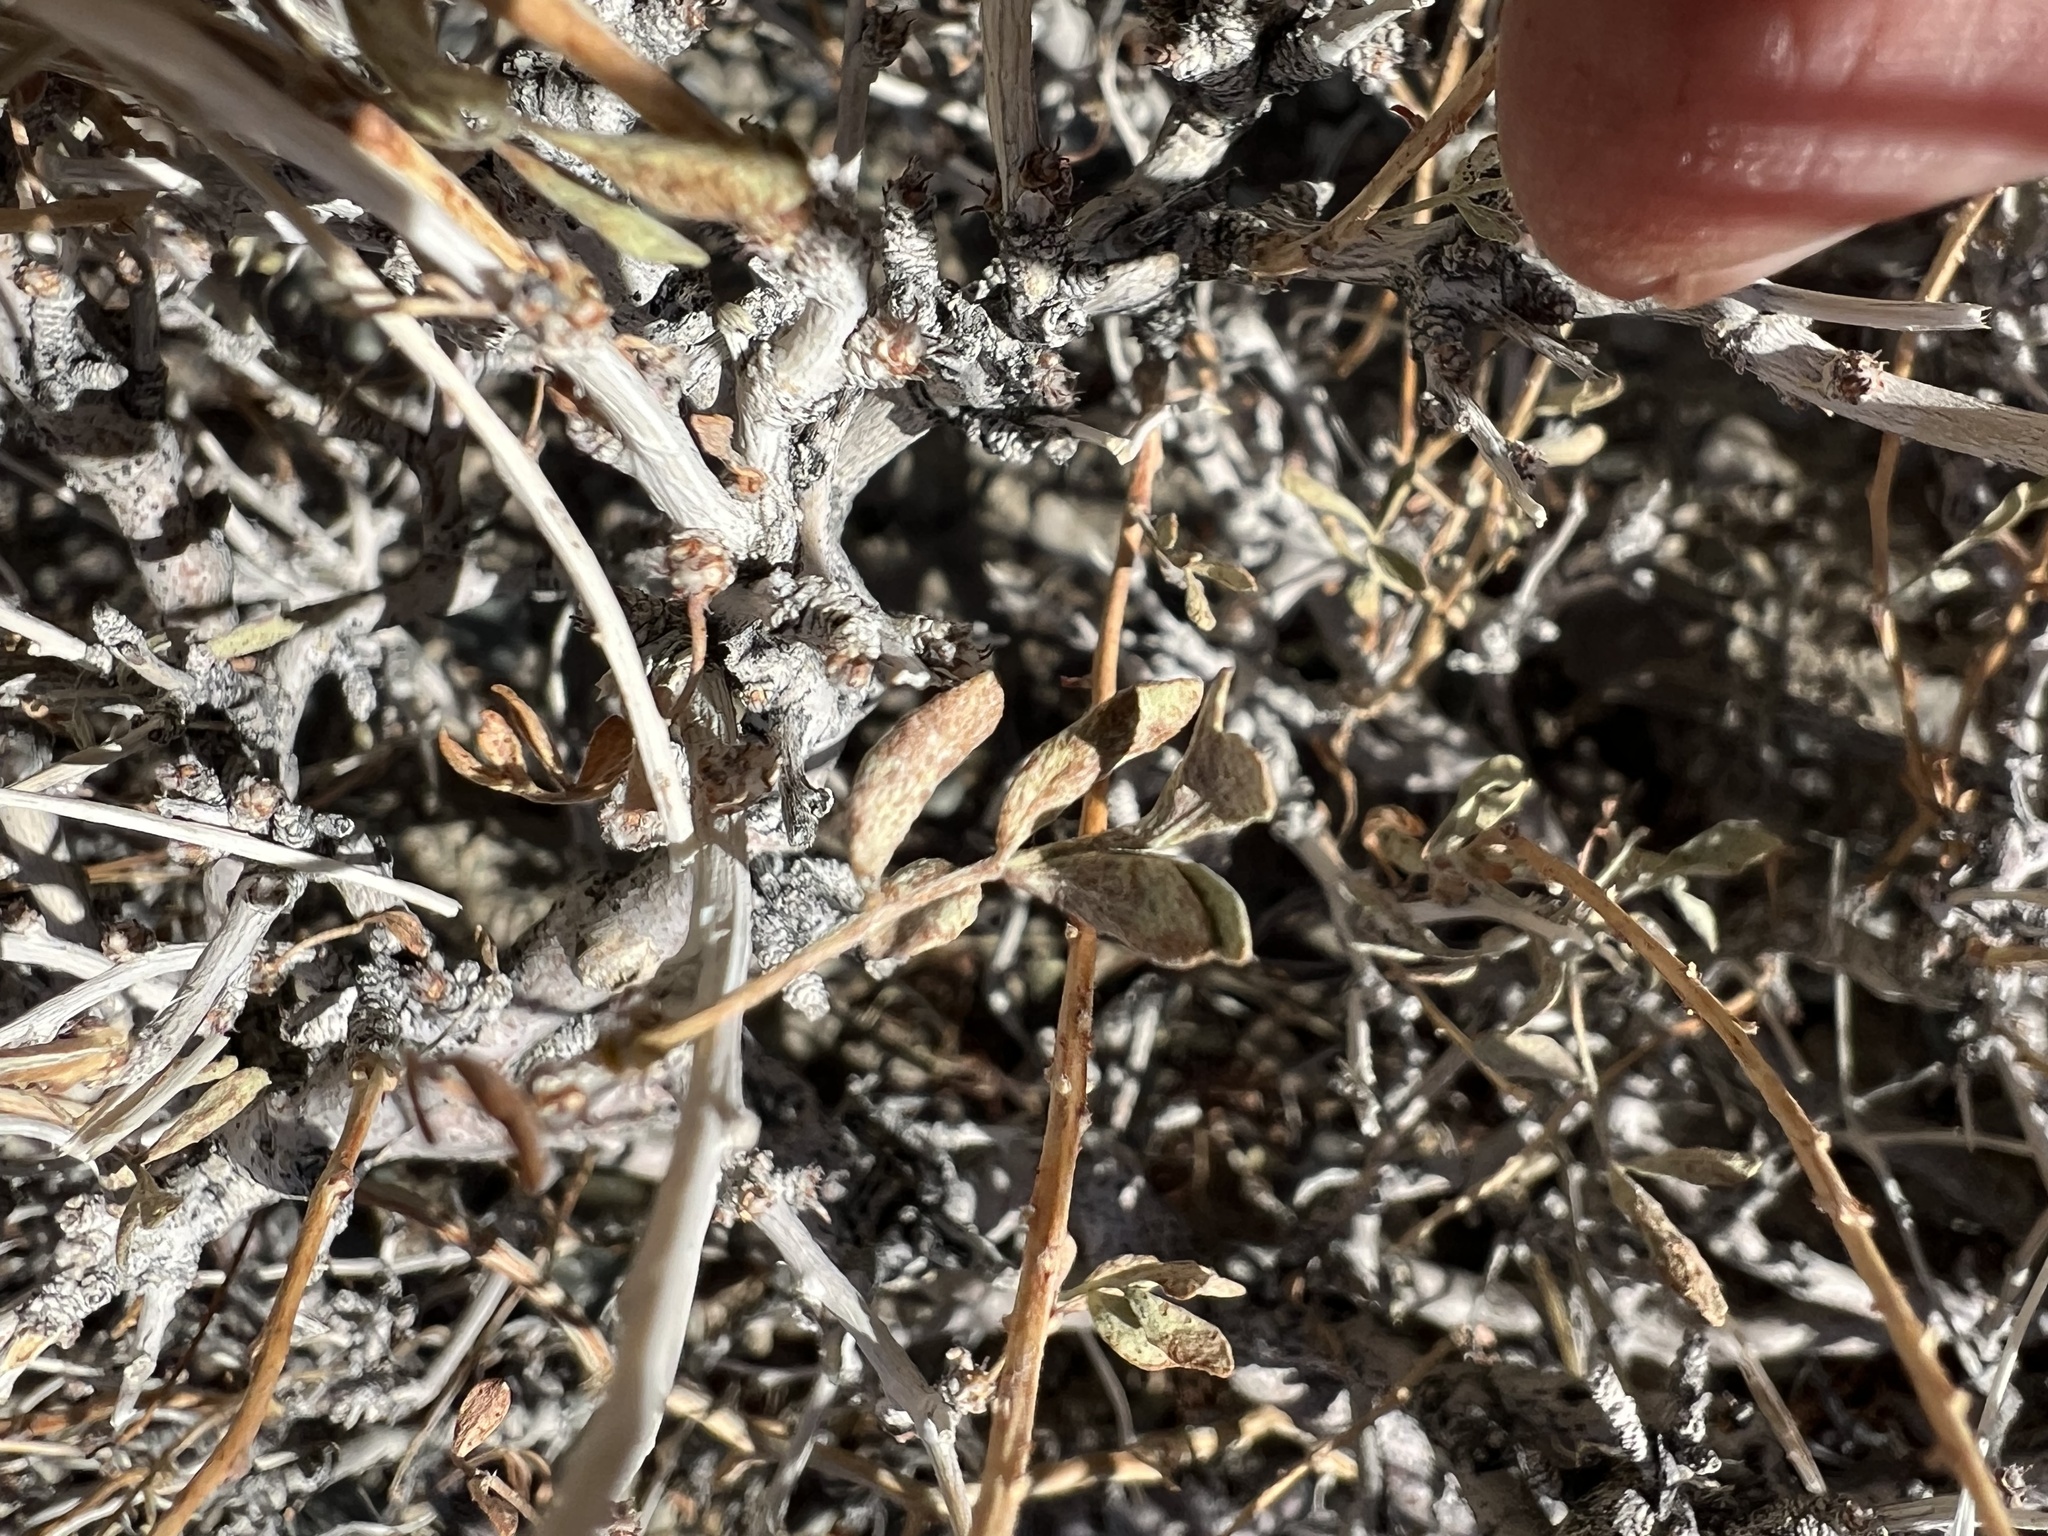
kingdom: Plantae
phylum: Tracheophyta
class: Magnoliopsida
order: Fabales
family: Fabaceae
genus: Psorothamnus
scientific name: Psorothamnus arborescens
